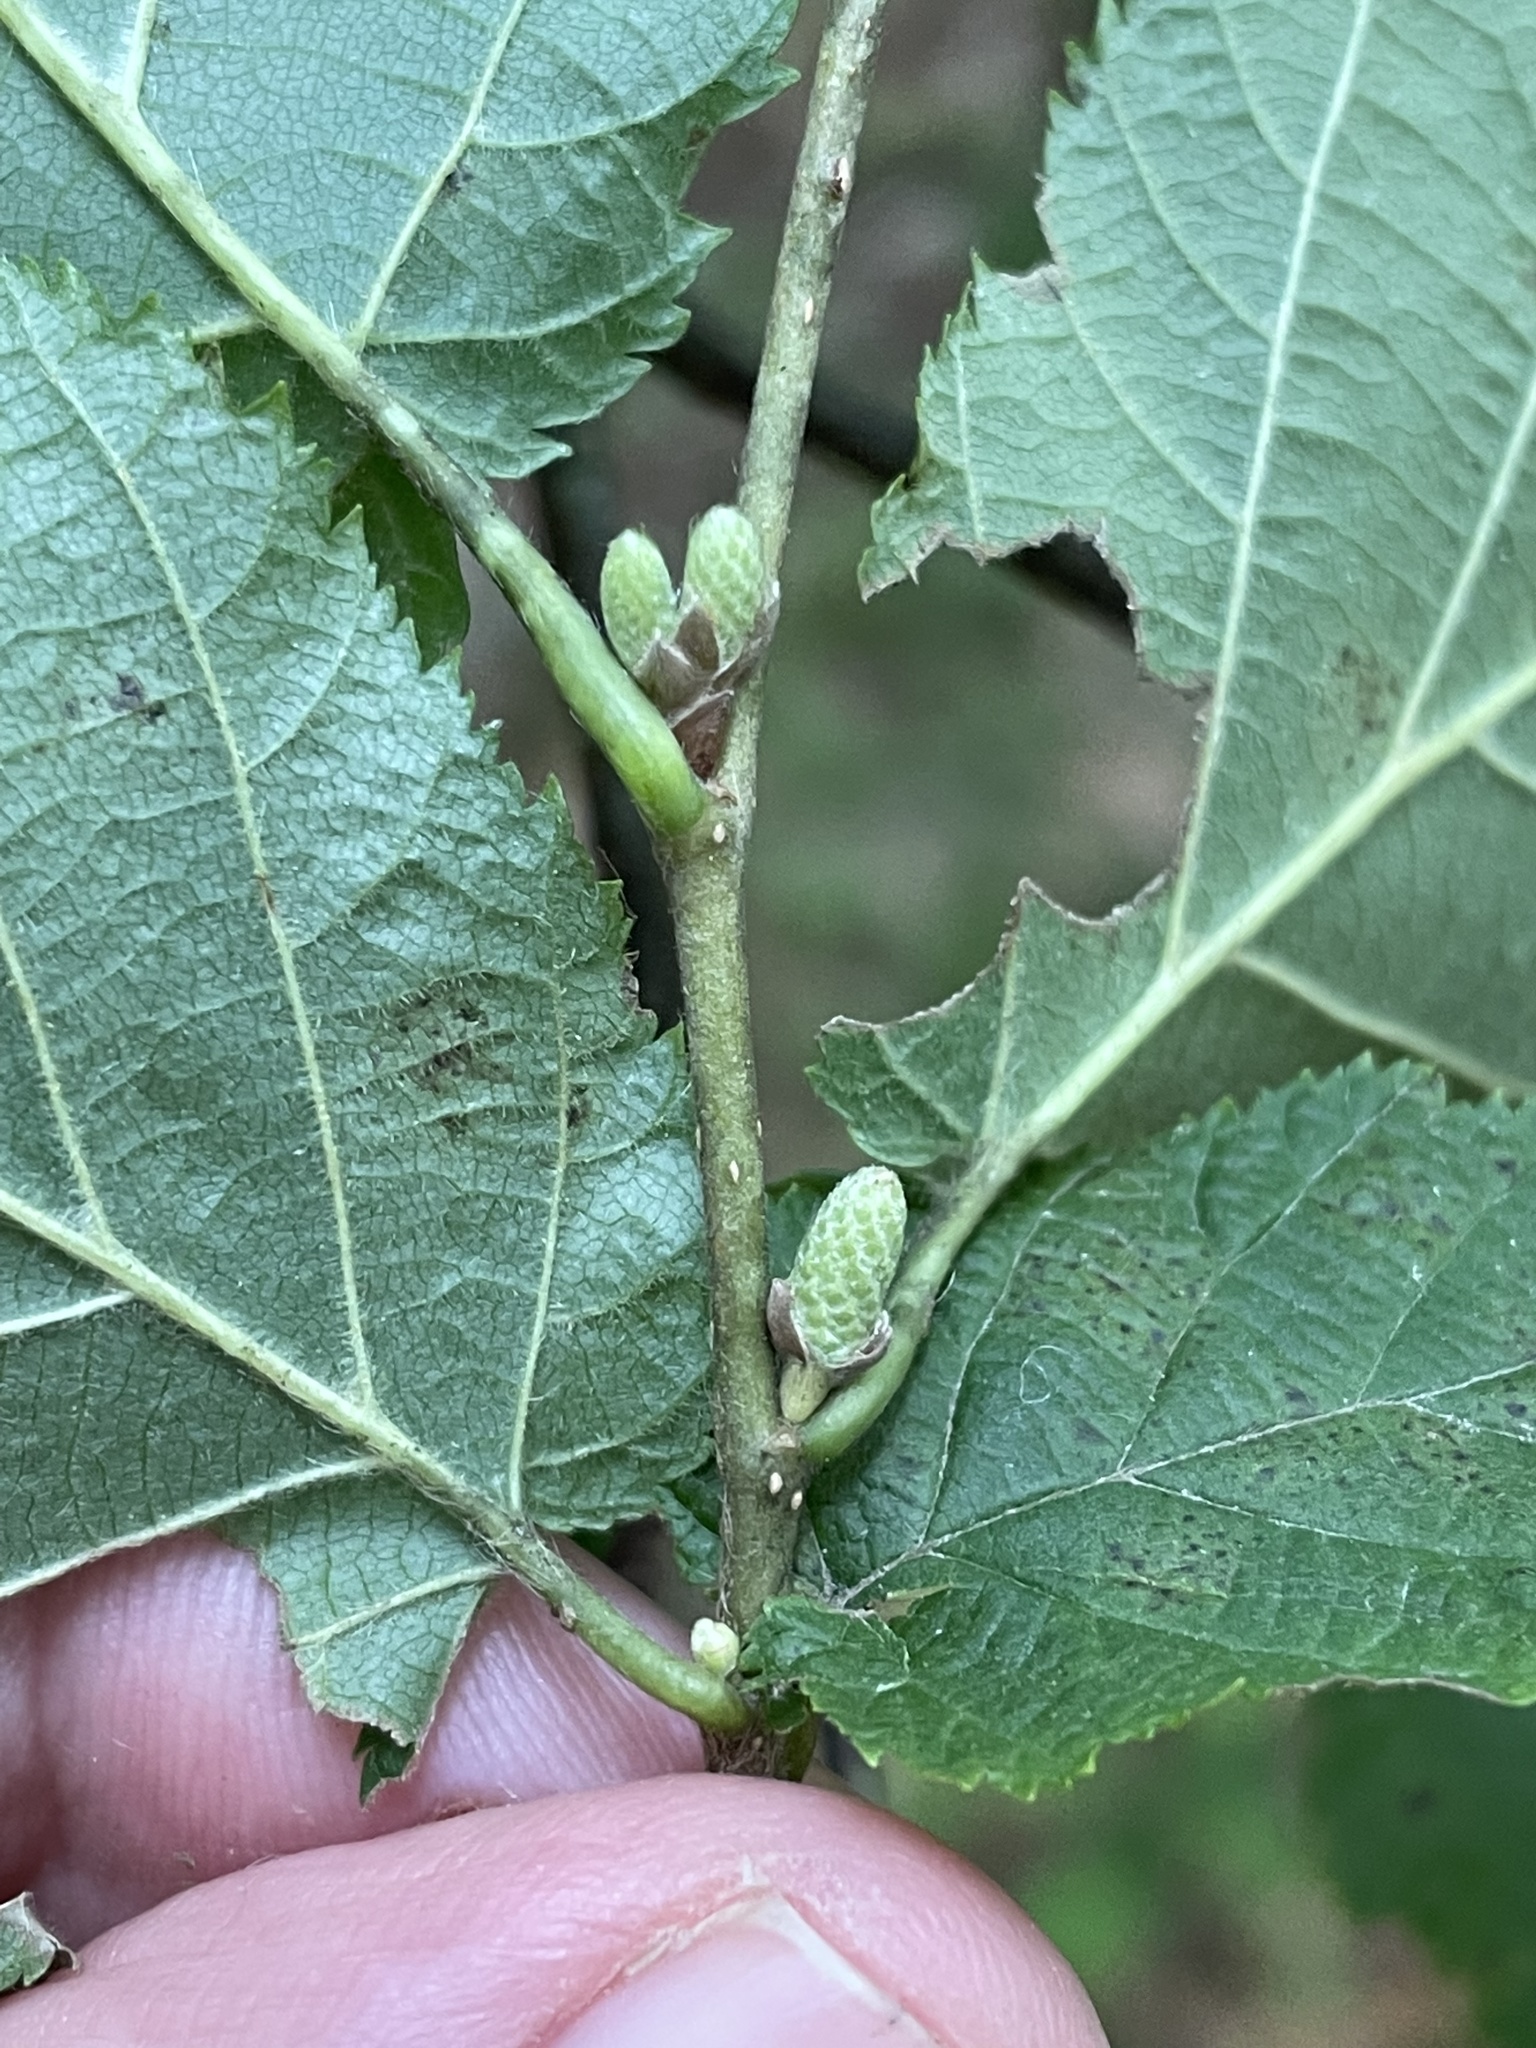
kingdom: Plantae
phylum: Tracheophyta
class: Magnoliopsida
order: Fagales
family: Betulaceae
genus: Corylus
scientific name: Corylus cornuta
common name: Beaked hazel
